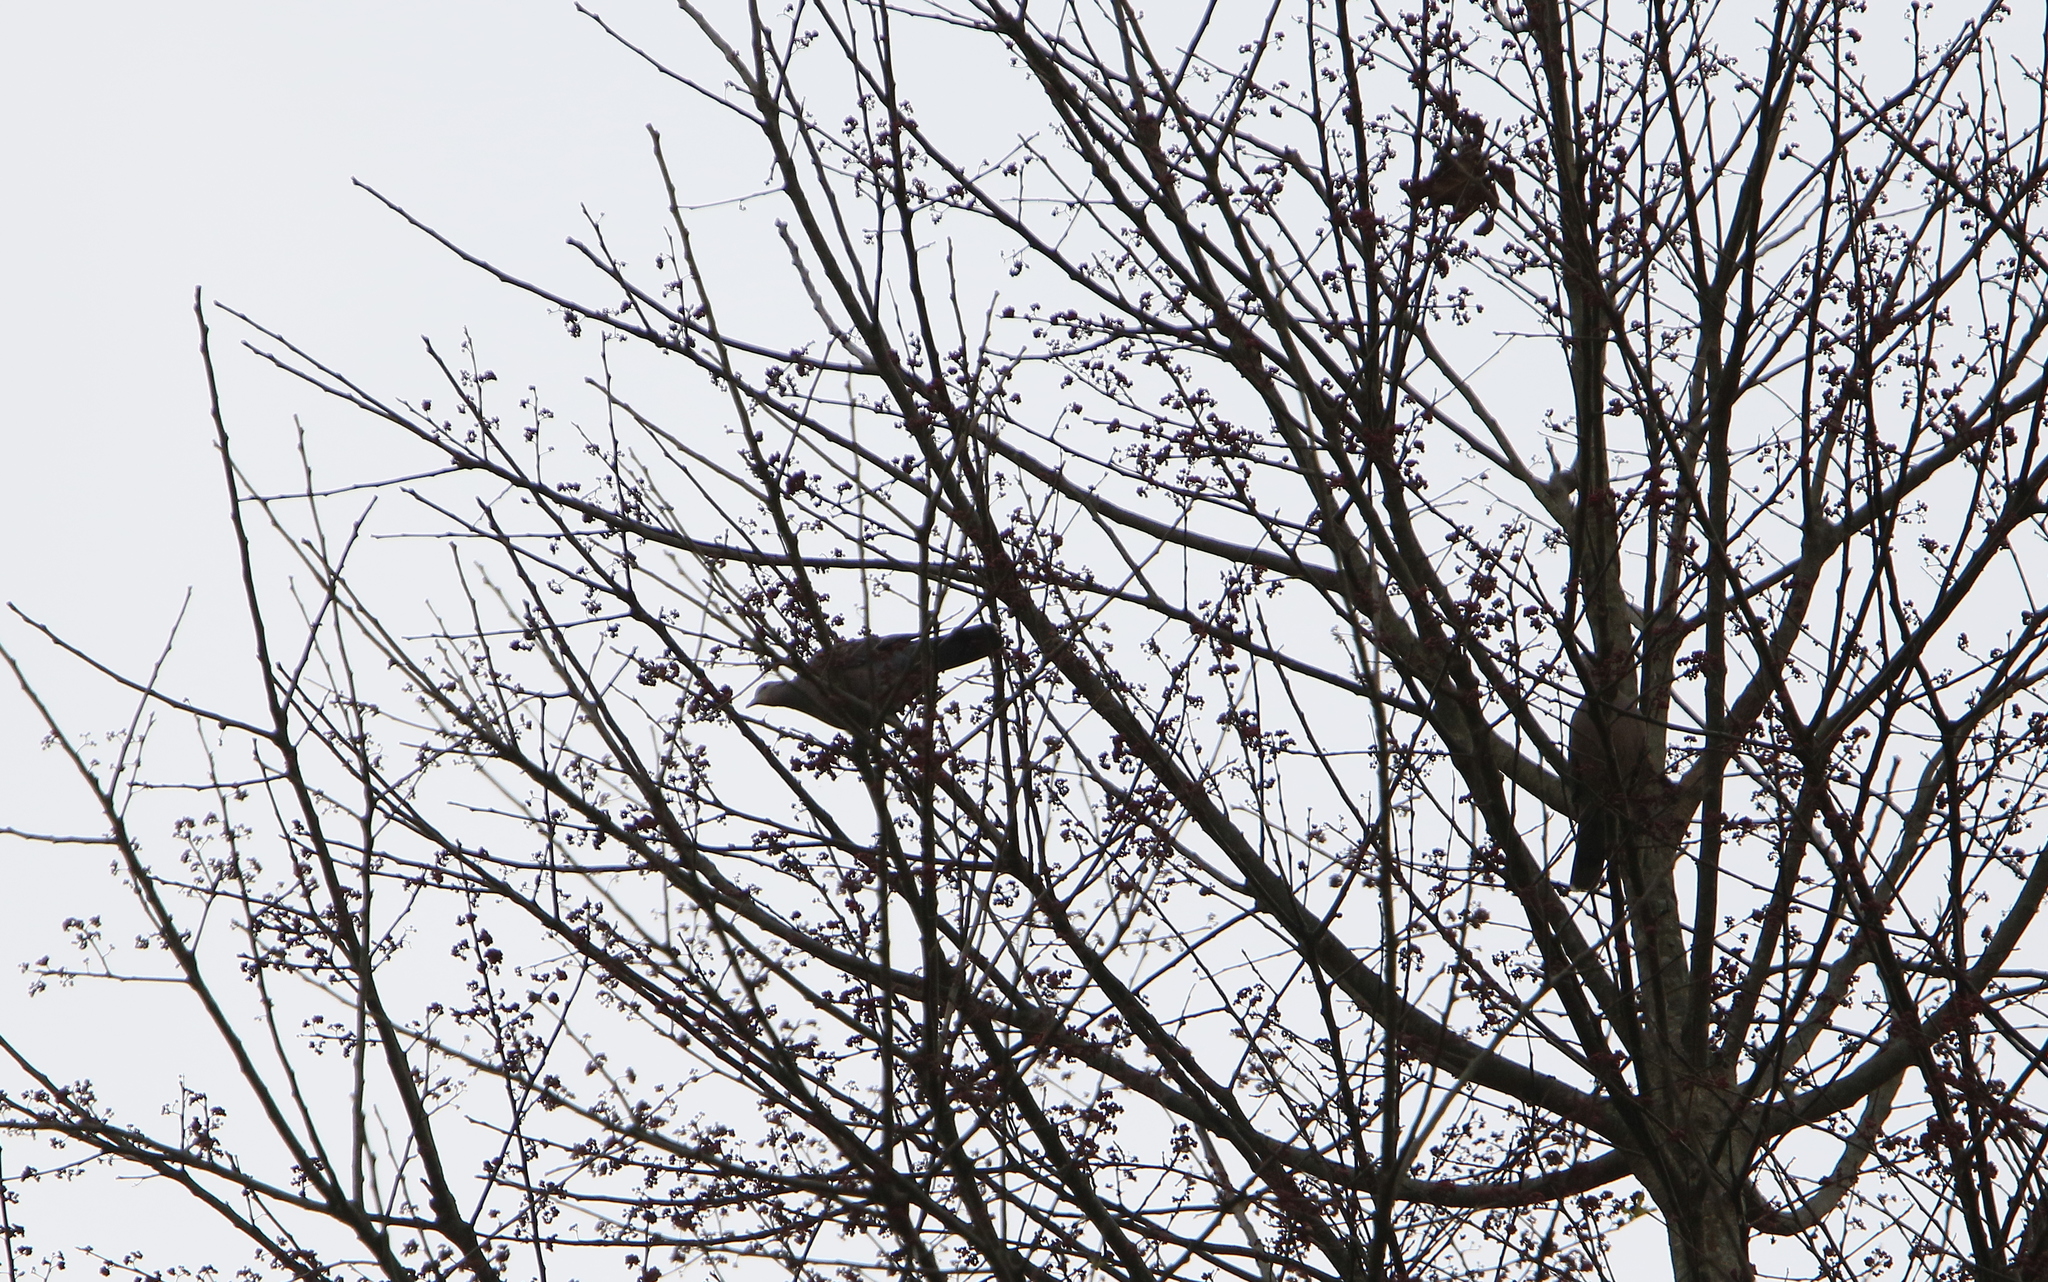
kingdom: Animalia
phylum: Chordata
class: Aves
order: Columbiformes
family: Columbidae
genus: Streptopelia
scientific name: Streptopelia orientalis
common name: Oriental turtle dove
